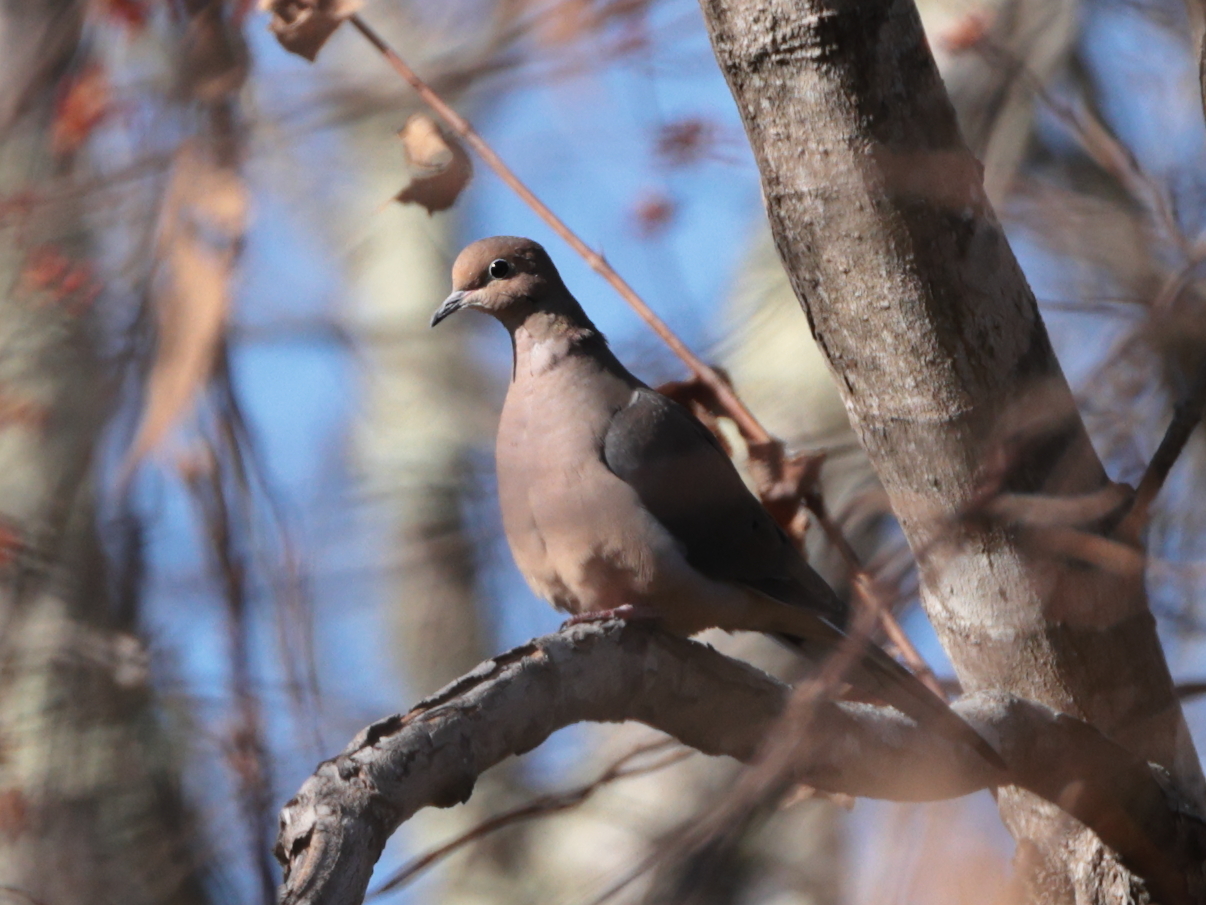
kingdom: Animalia
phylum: Chordata
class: Aves
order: Columbiformes
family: Columbidae
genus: Zenaida
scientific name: Zenaida macroura
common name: Mourning dove
